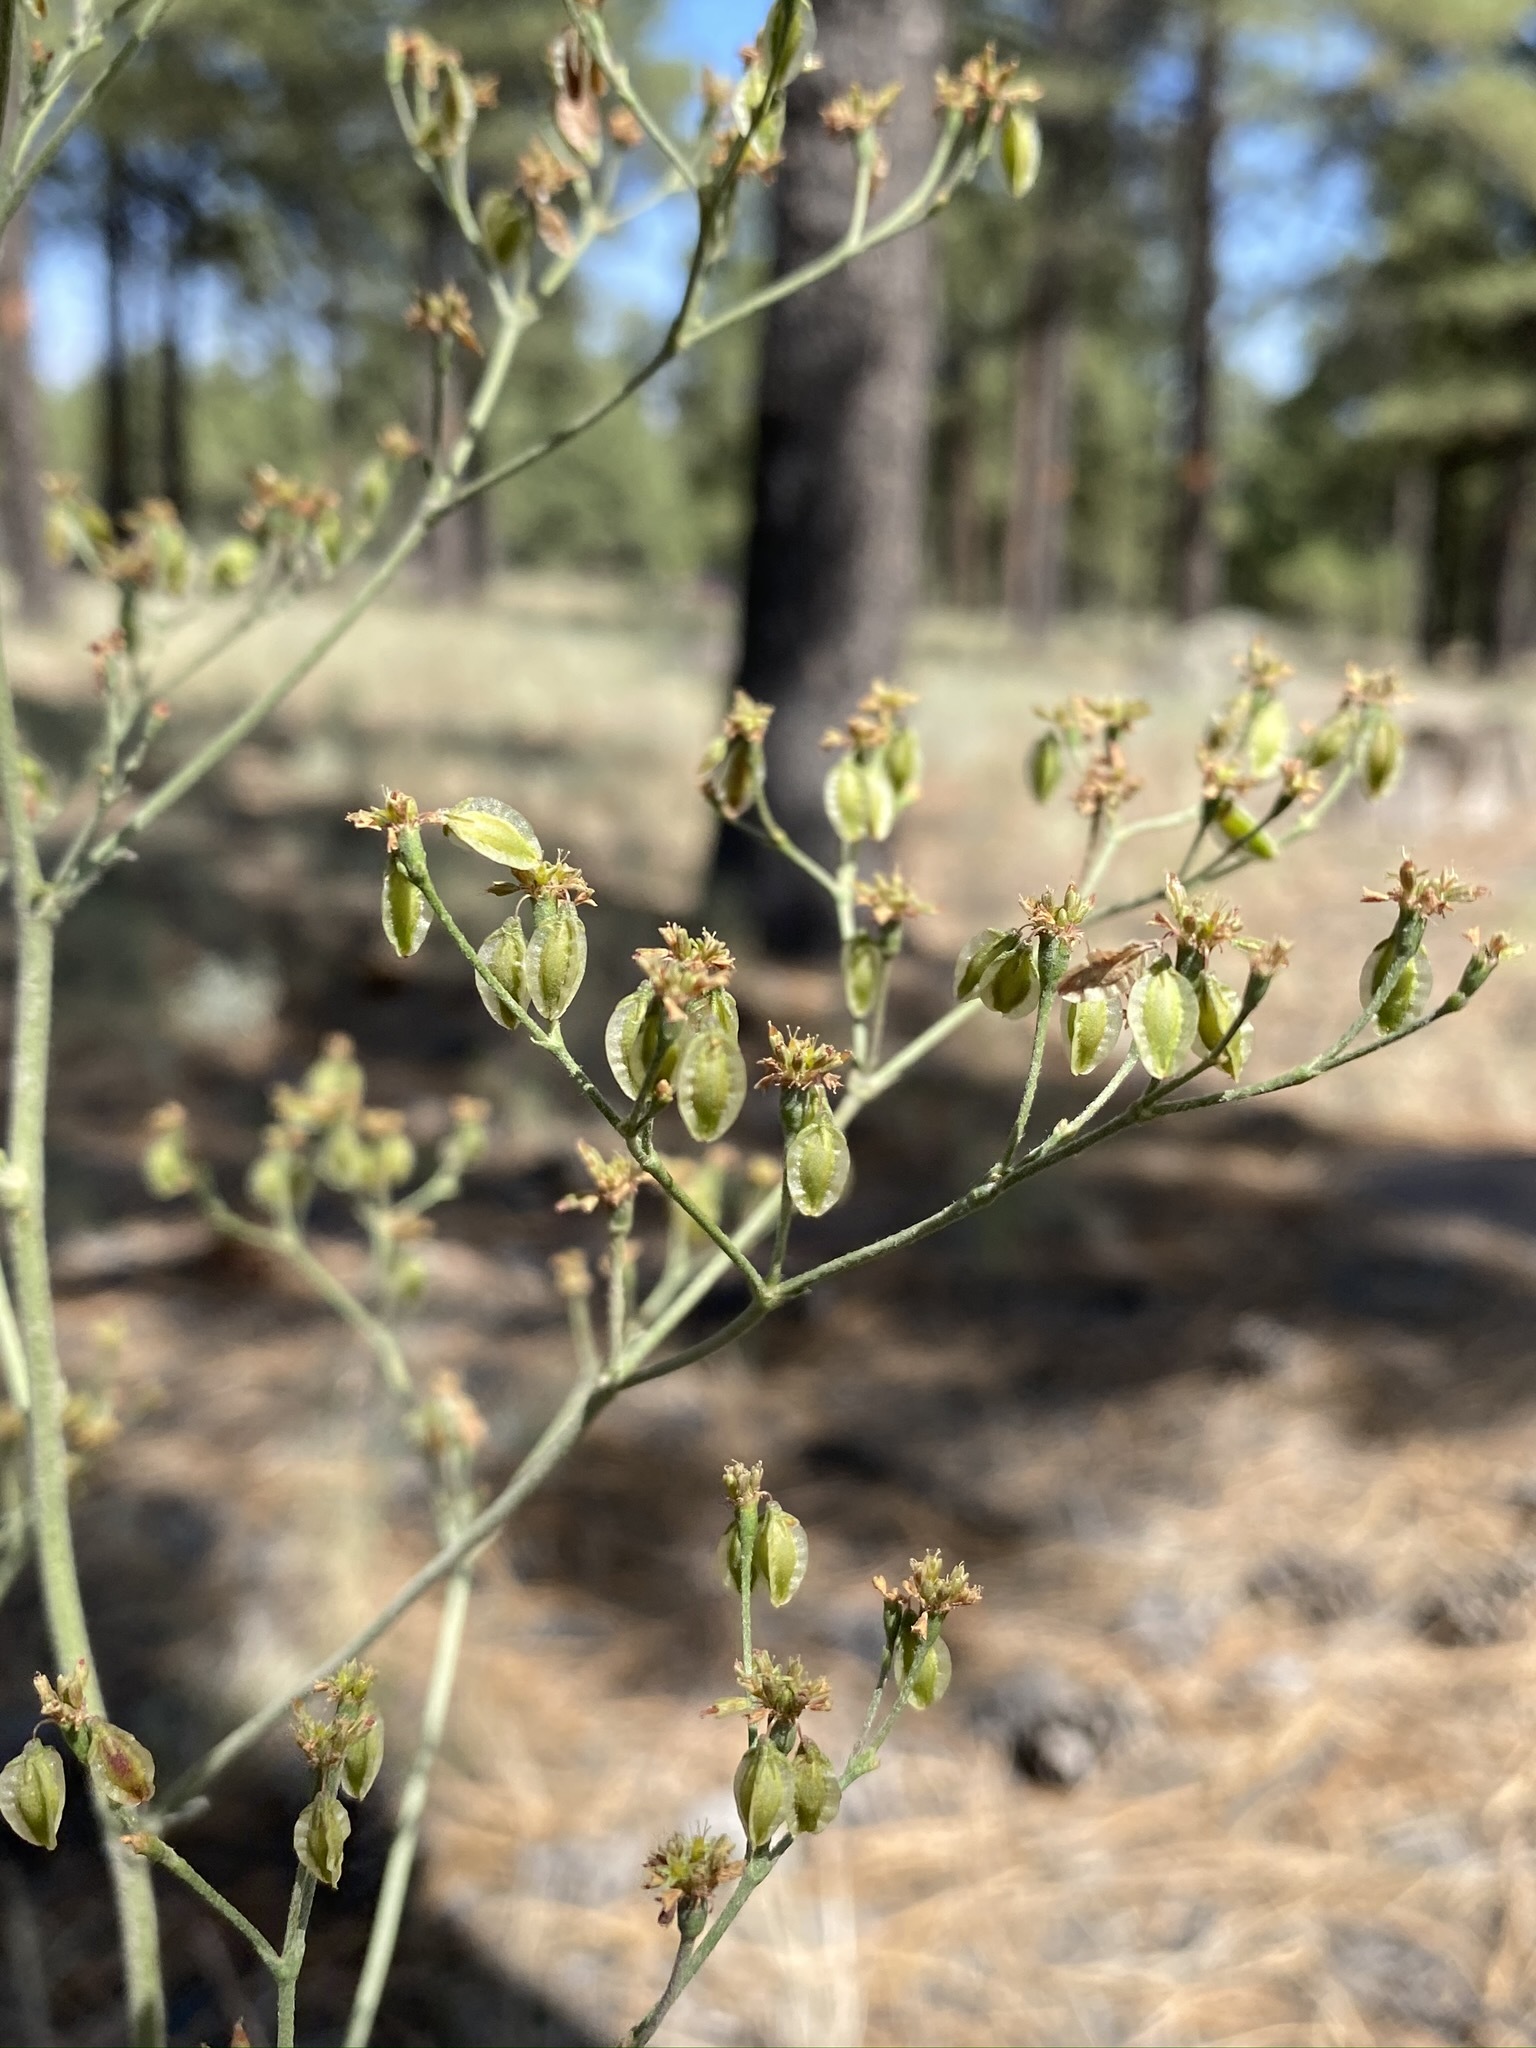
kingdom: Plantae
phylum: Tracheophyta
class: Magnoliopsida
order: Caryophyllales
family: Polygonaceae
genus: Eriogonum
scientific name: Eriogonum alatum
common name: Winged eriogonum
